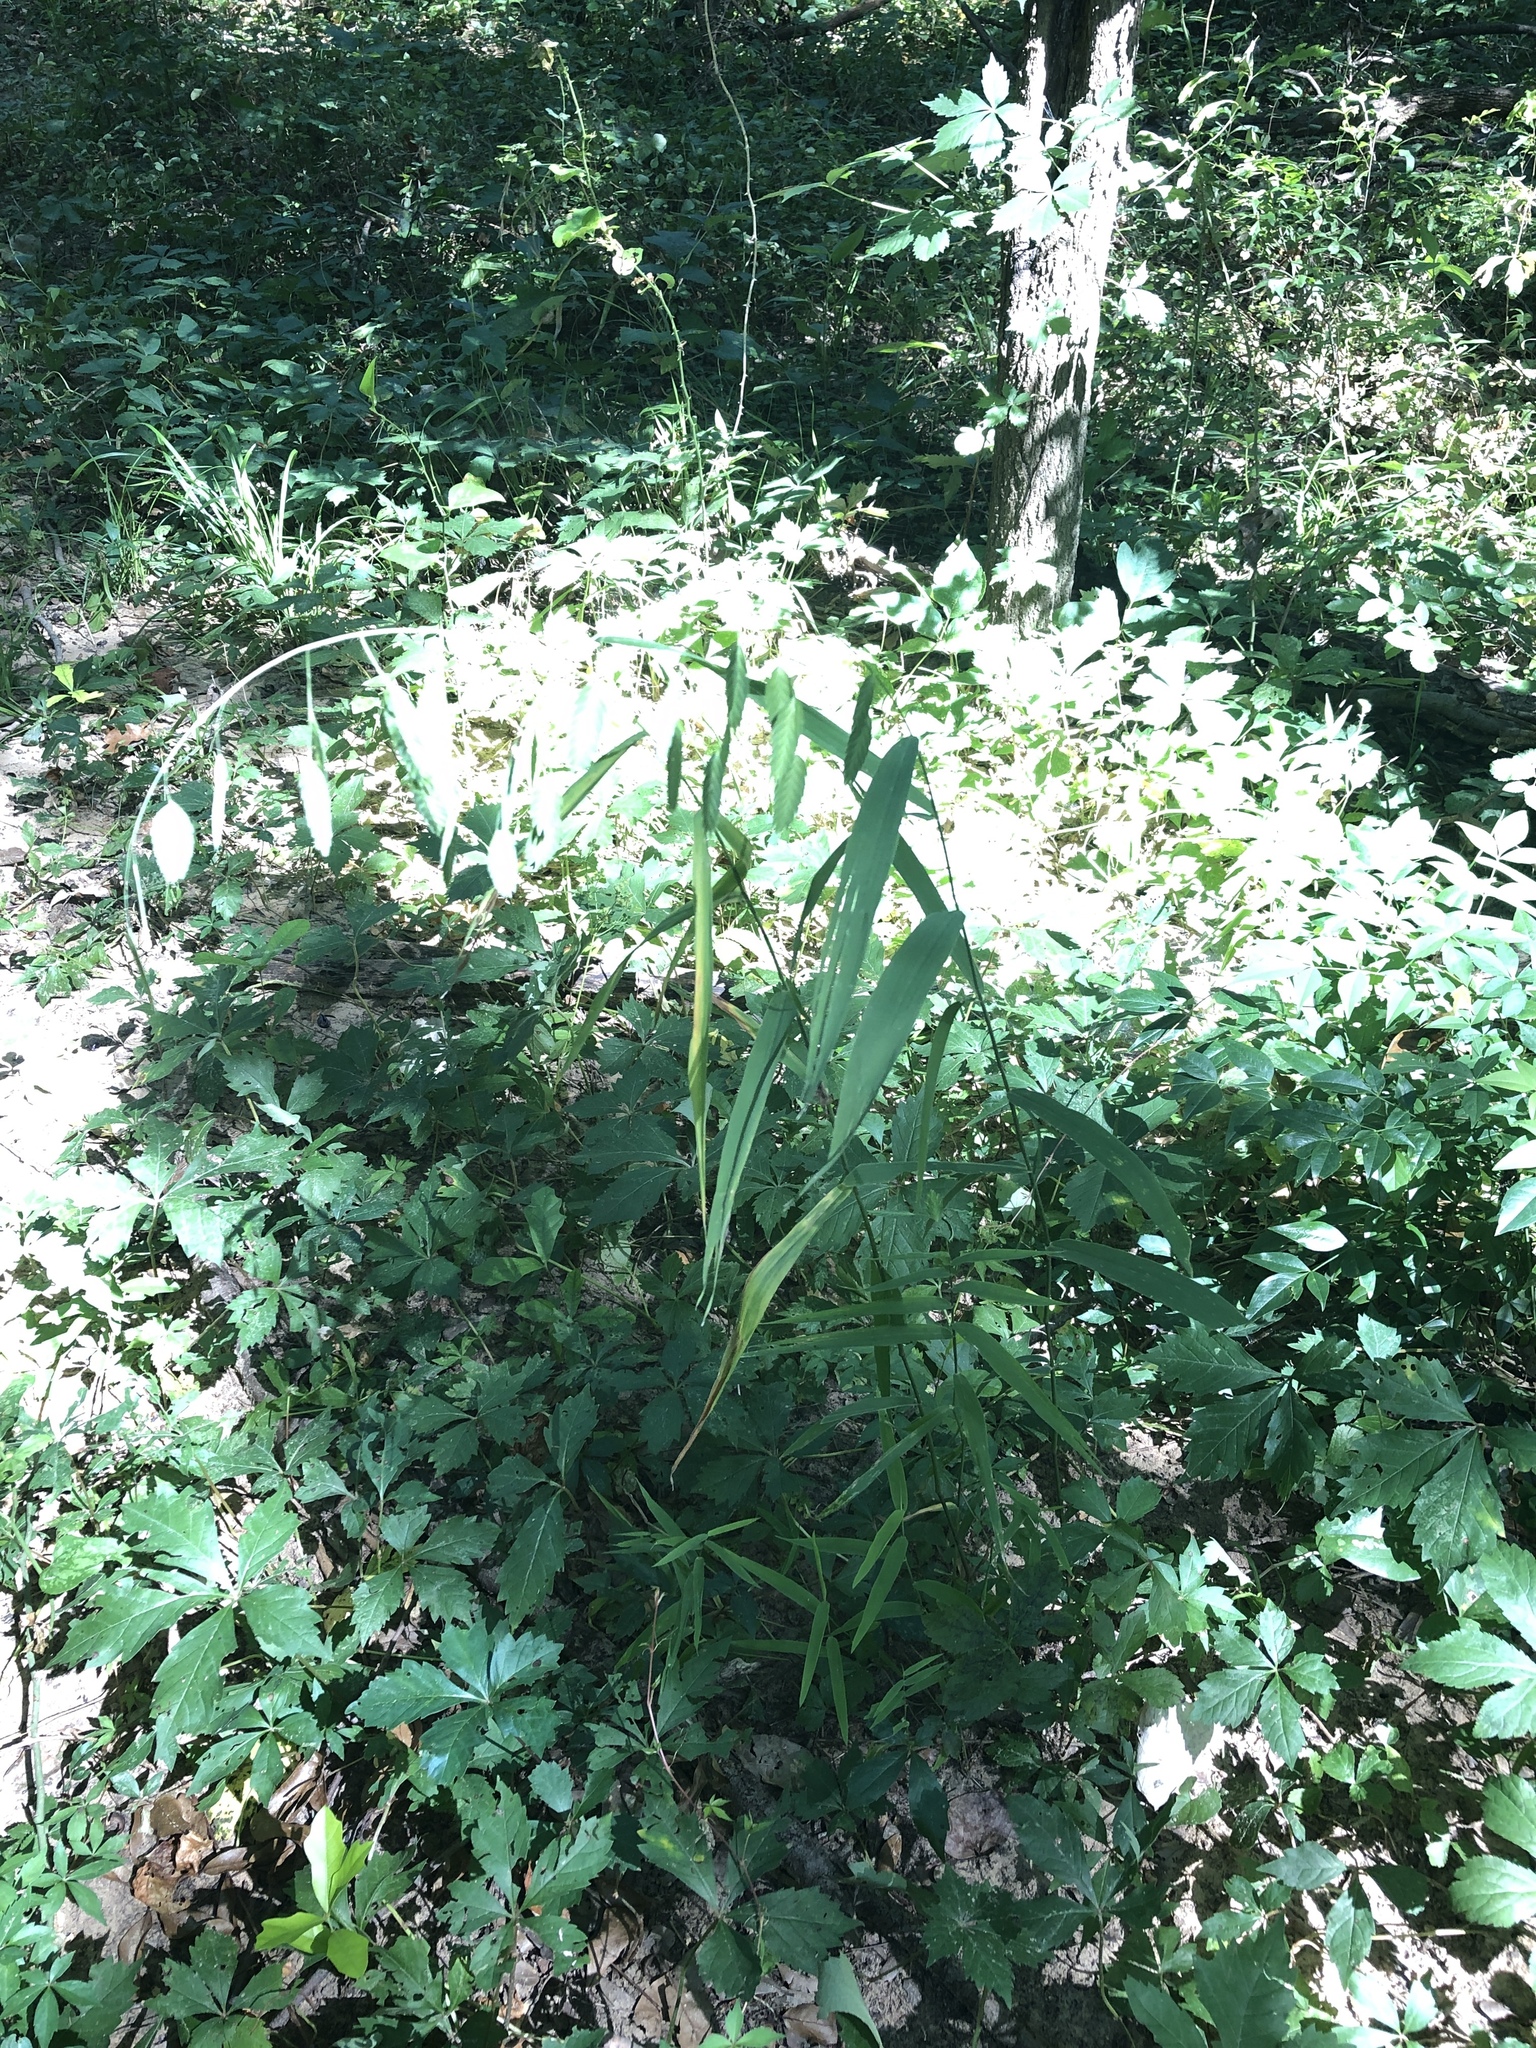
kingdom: Plantae
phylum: Tracheophyta
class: Liliopsida
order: Poales
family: Poaceae
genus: Chasmanthium
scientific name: Chasmanthium latifolium
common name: Broad-leaved chasmanthium
